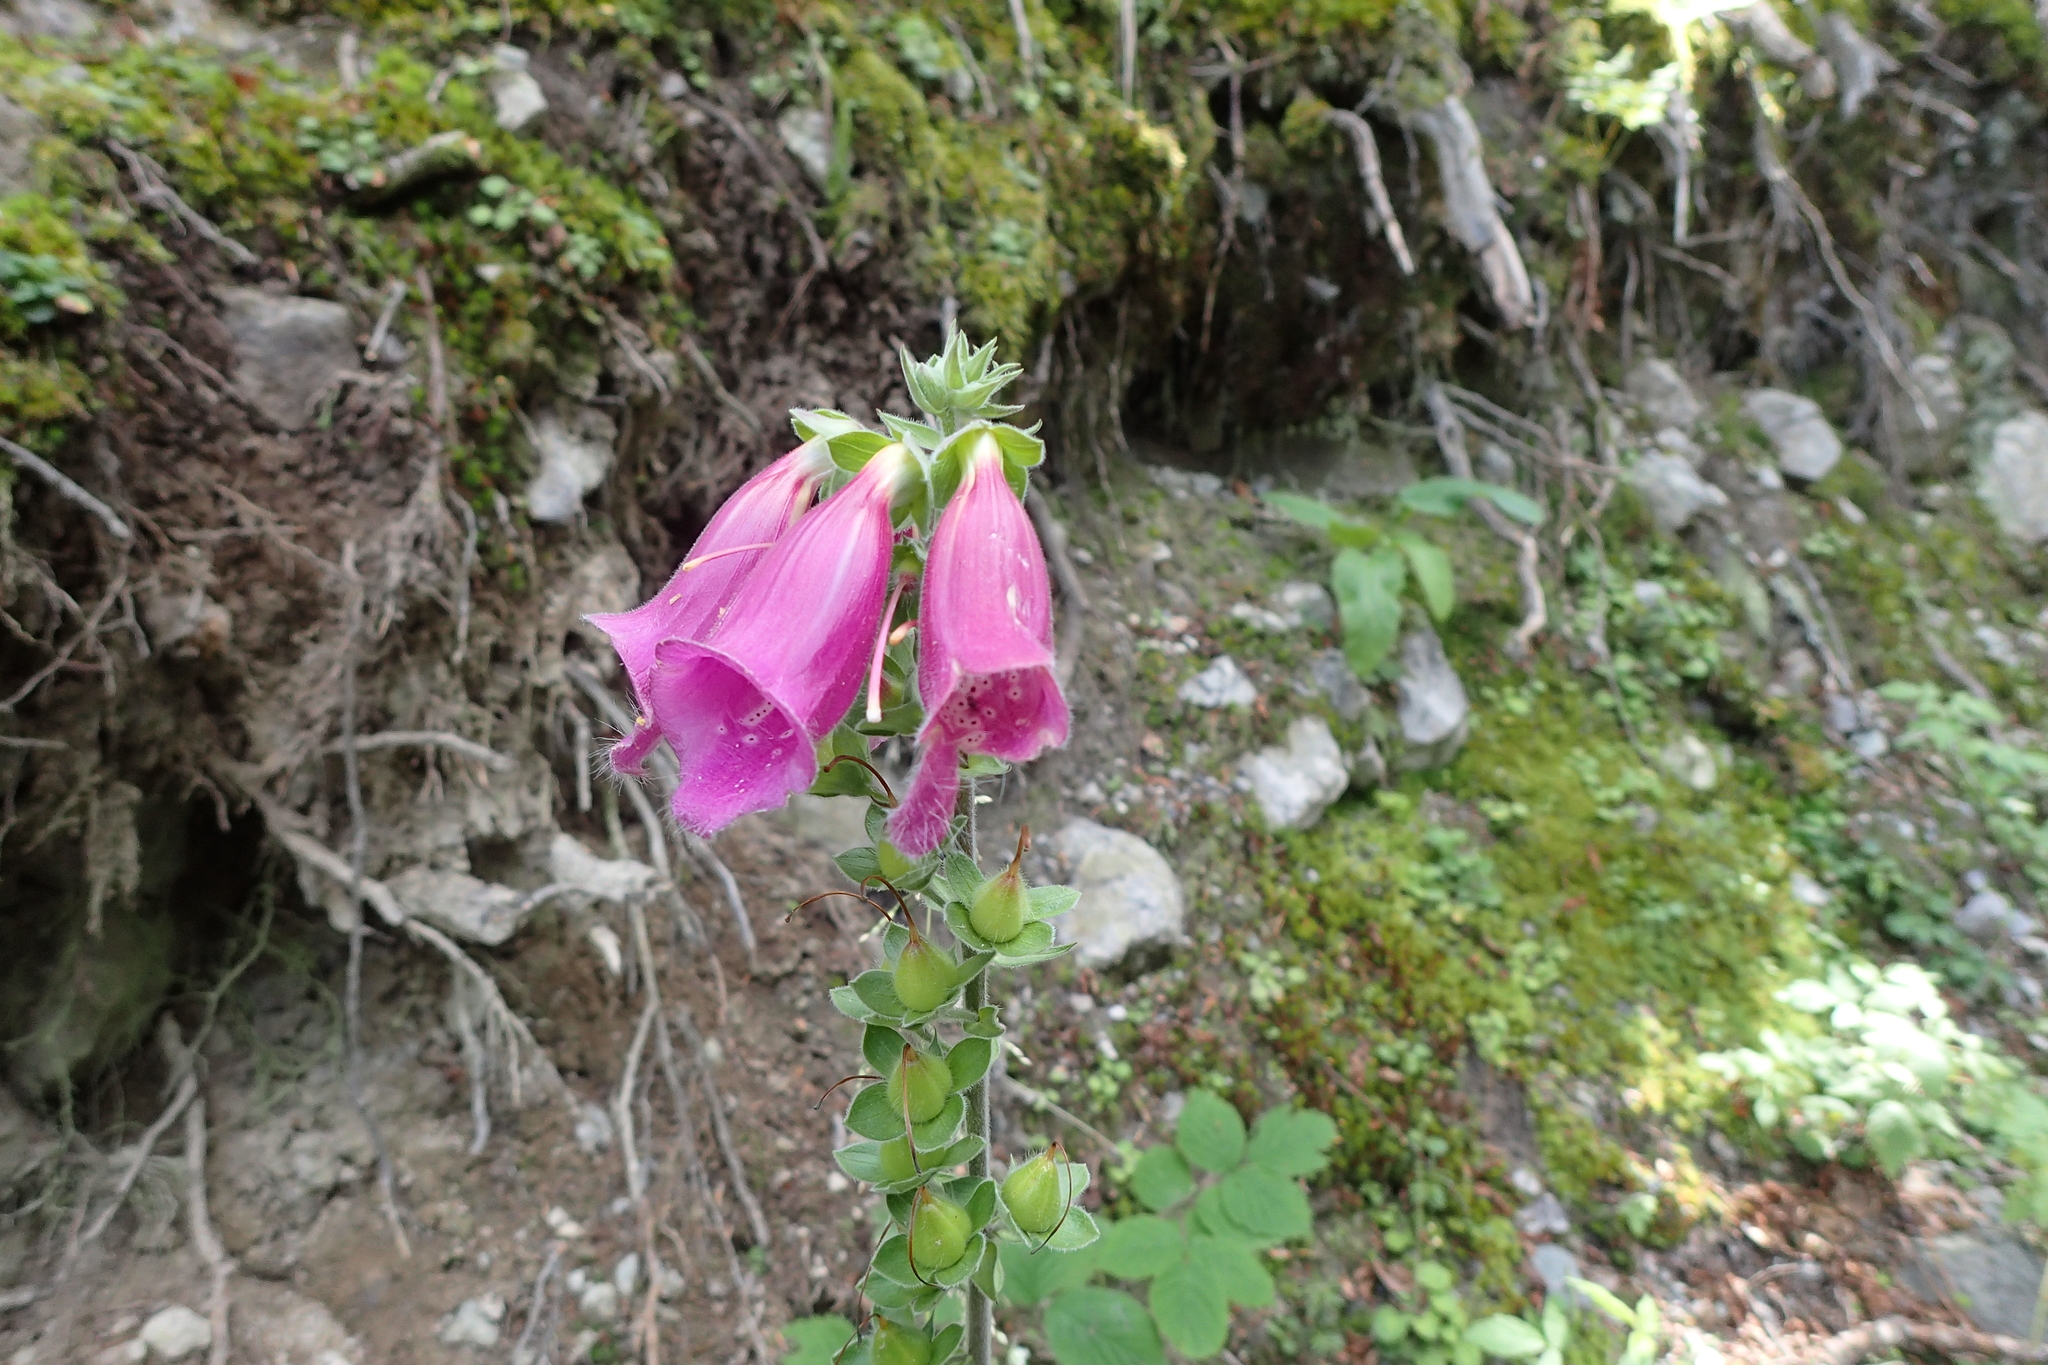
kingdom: Plantae
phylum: Tracheophyta
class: Magnoliopsida
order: Lamiales
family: Plantaginaceae
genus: Digitalis
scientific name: Digitalis purpurea
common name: Foxglove
